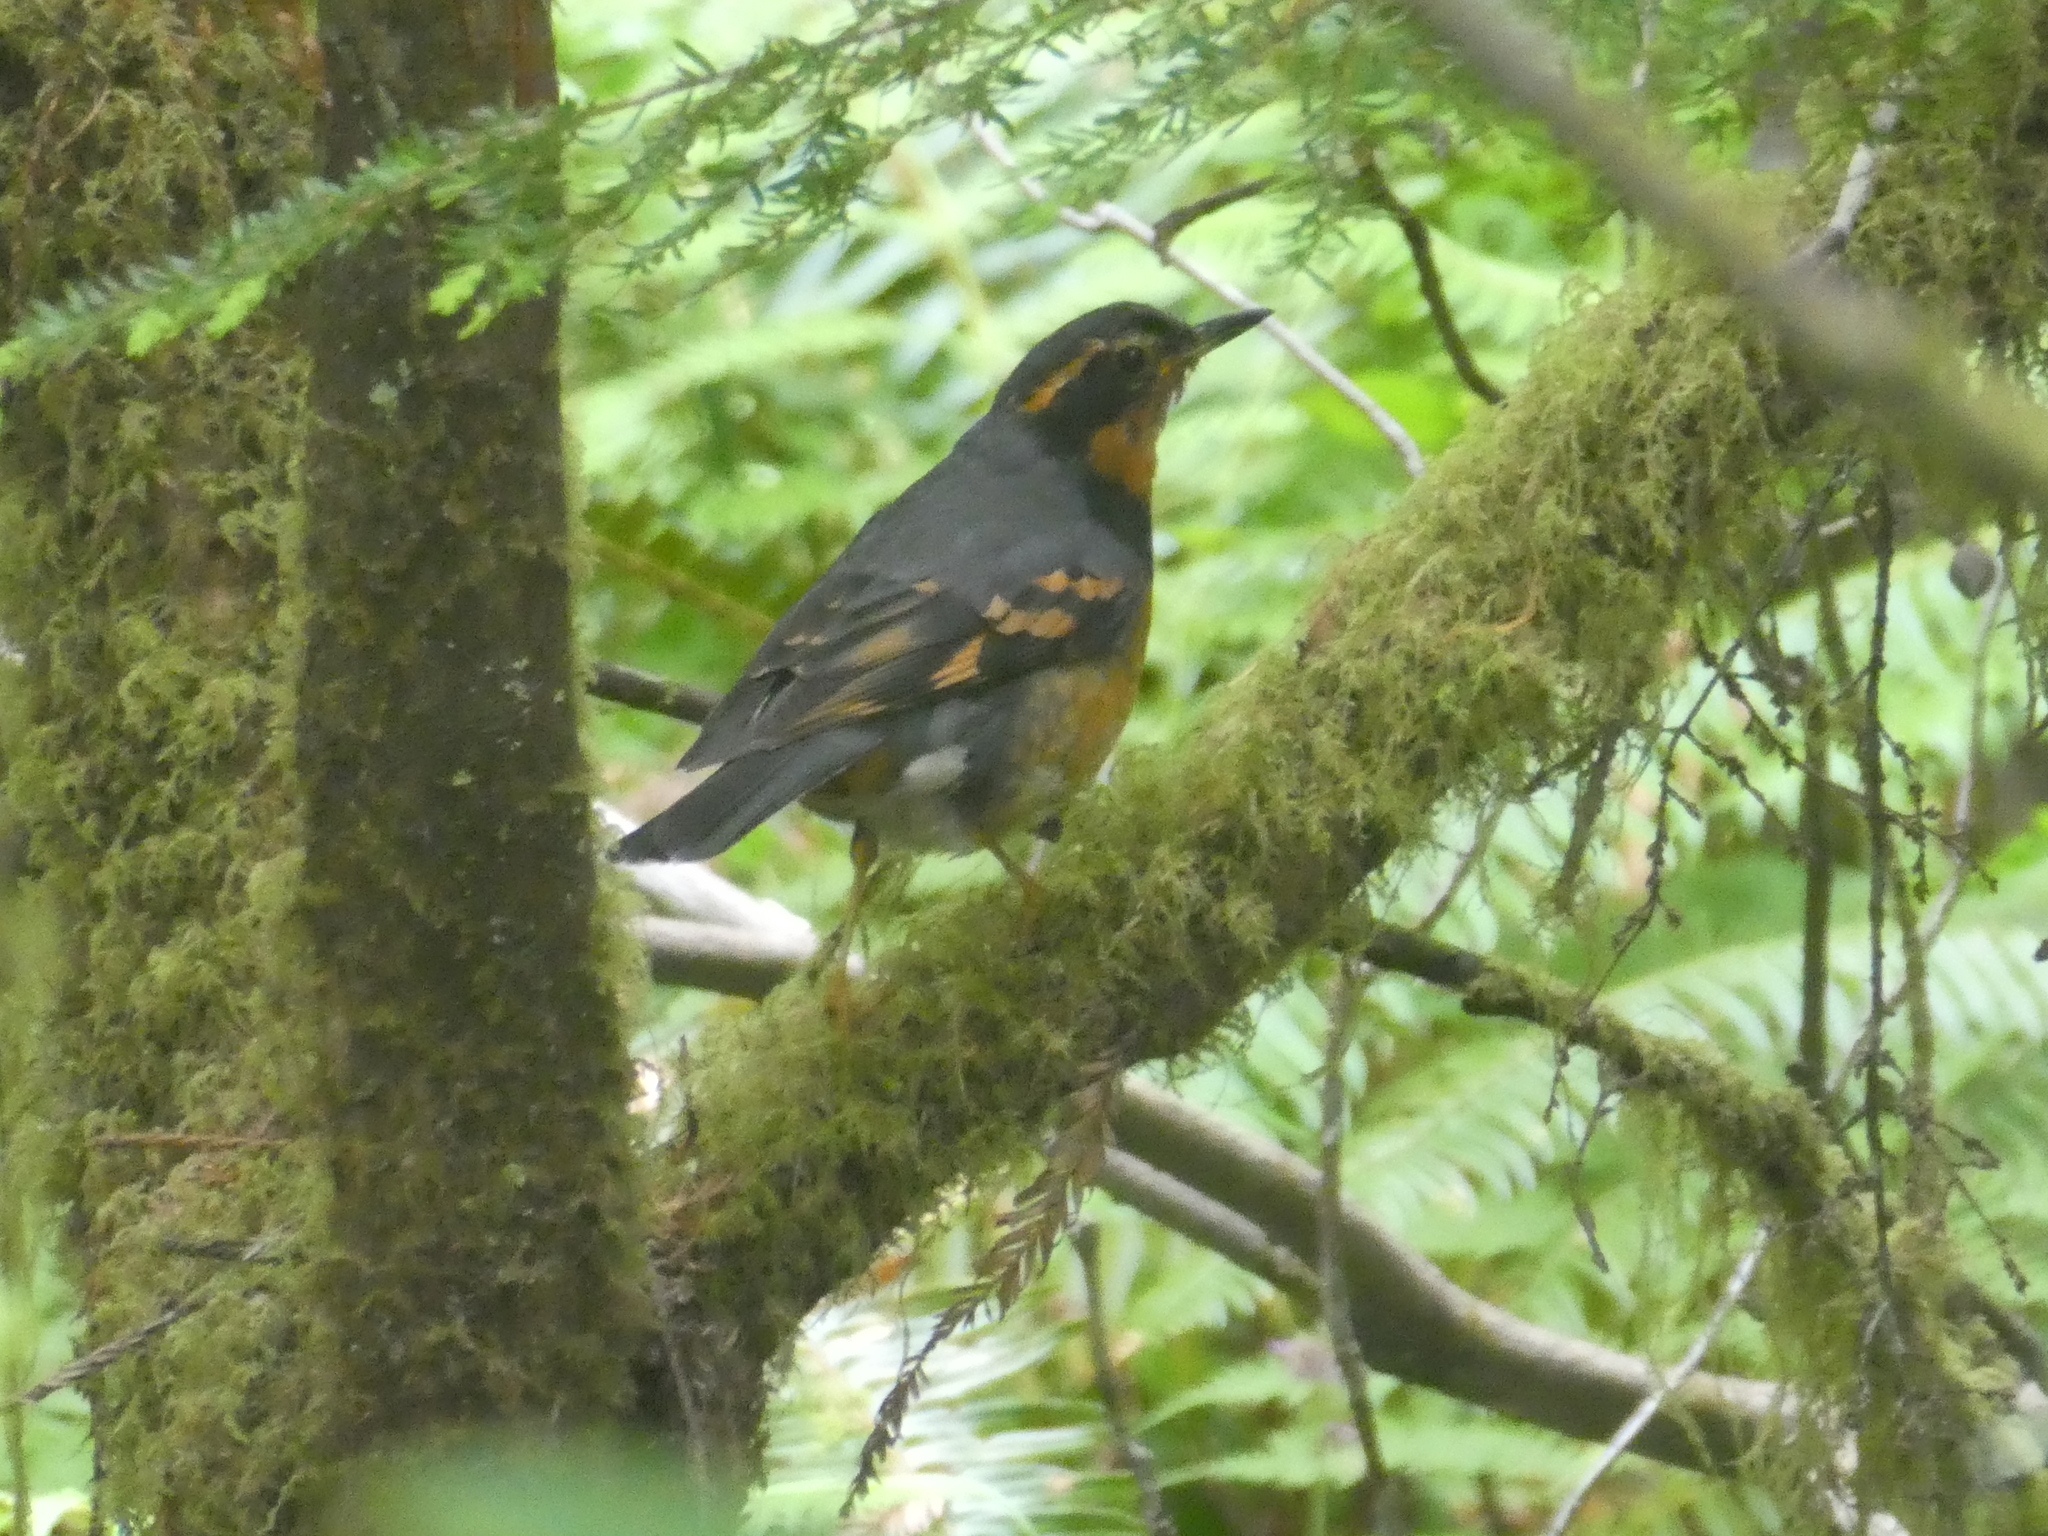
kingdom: Animalia
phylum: Chordata
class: Aves
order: Passeriformes
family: Turdidae
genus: Ixoreus
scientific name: Ixoreus naevius
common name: Varied thrush
